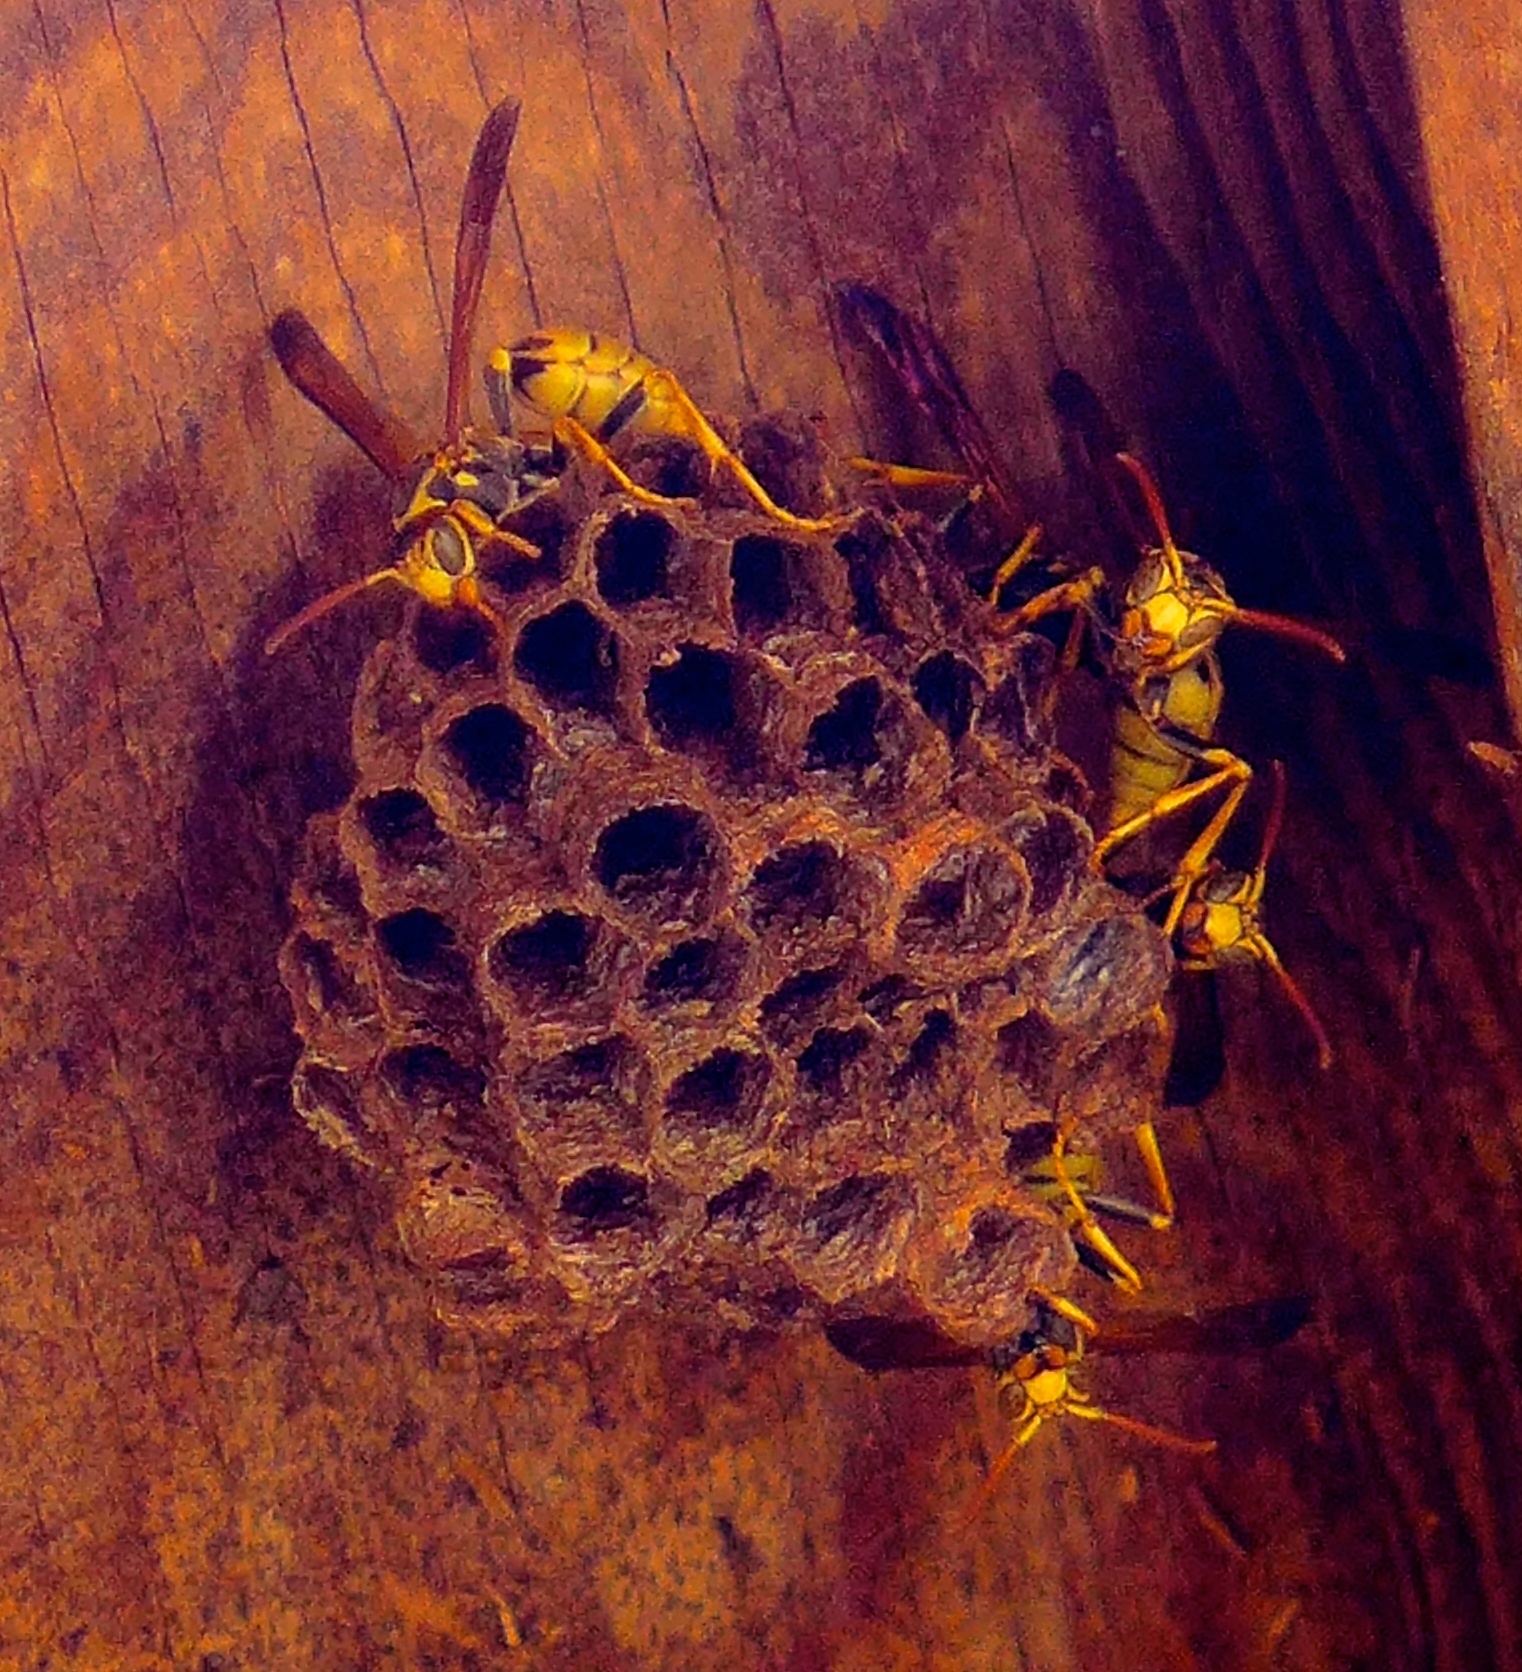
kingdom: Animalia
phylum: Arthropoda
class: Insecta
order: Hymenoptera
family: Vespidae
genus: Mischocyttarus
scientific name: Mischocyttarus flavitarsis
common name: Wasp
